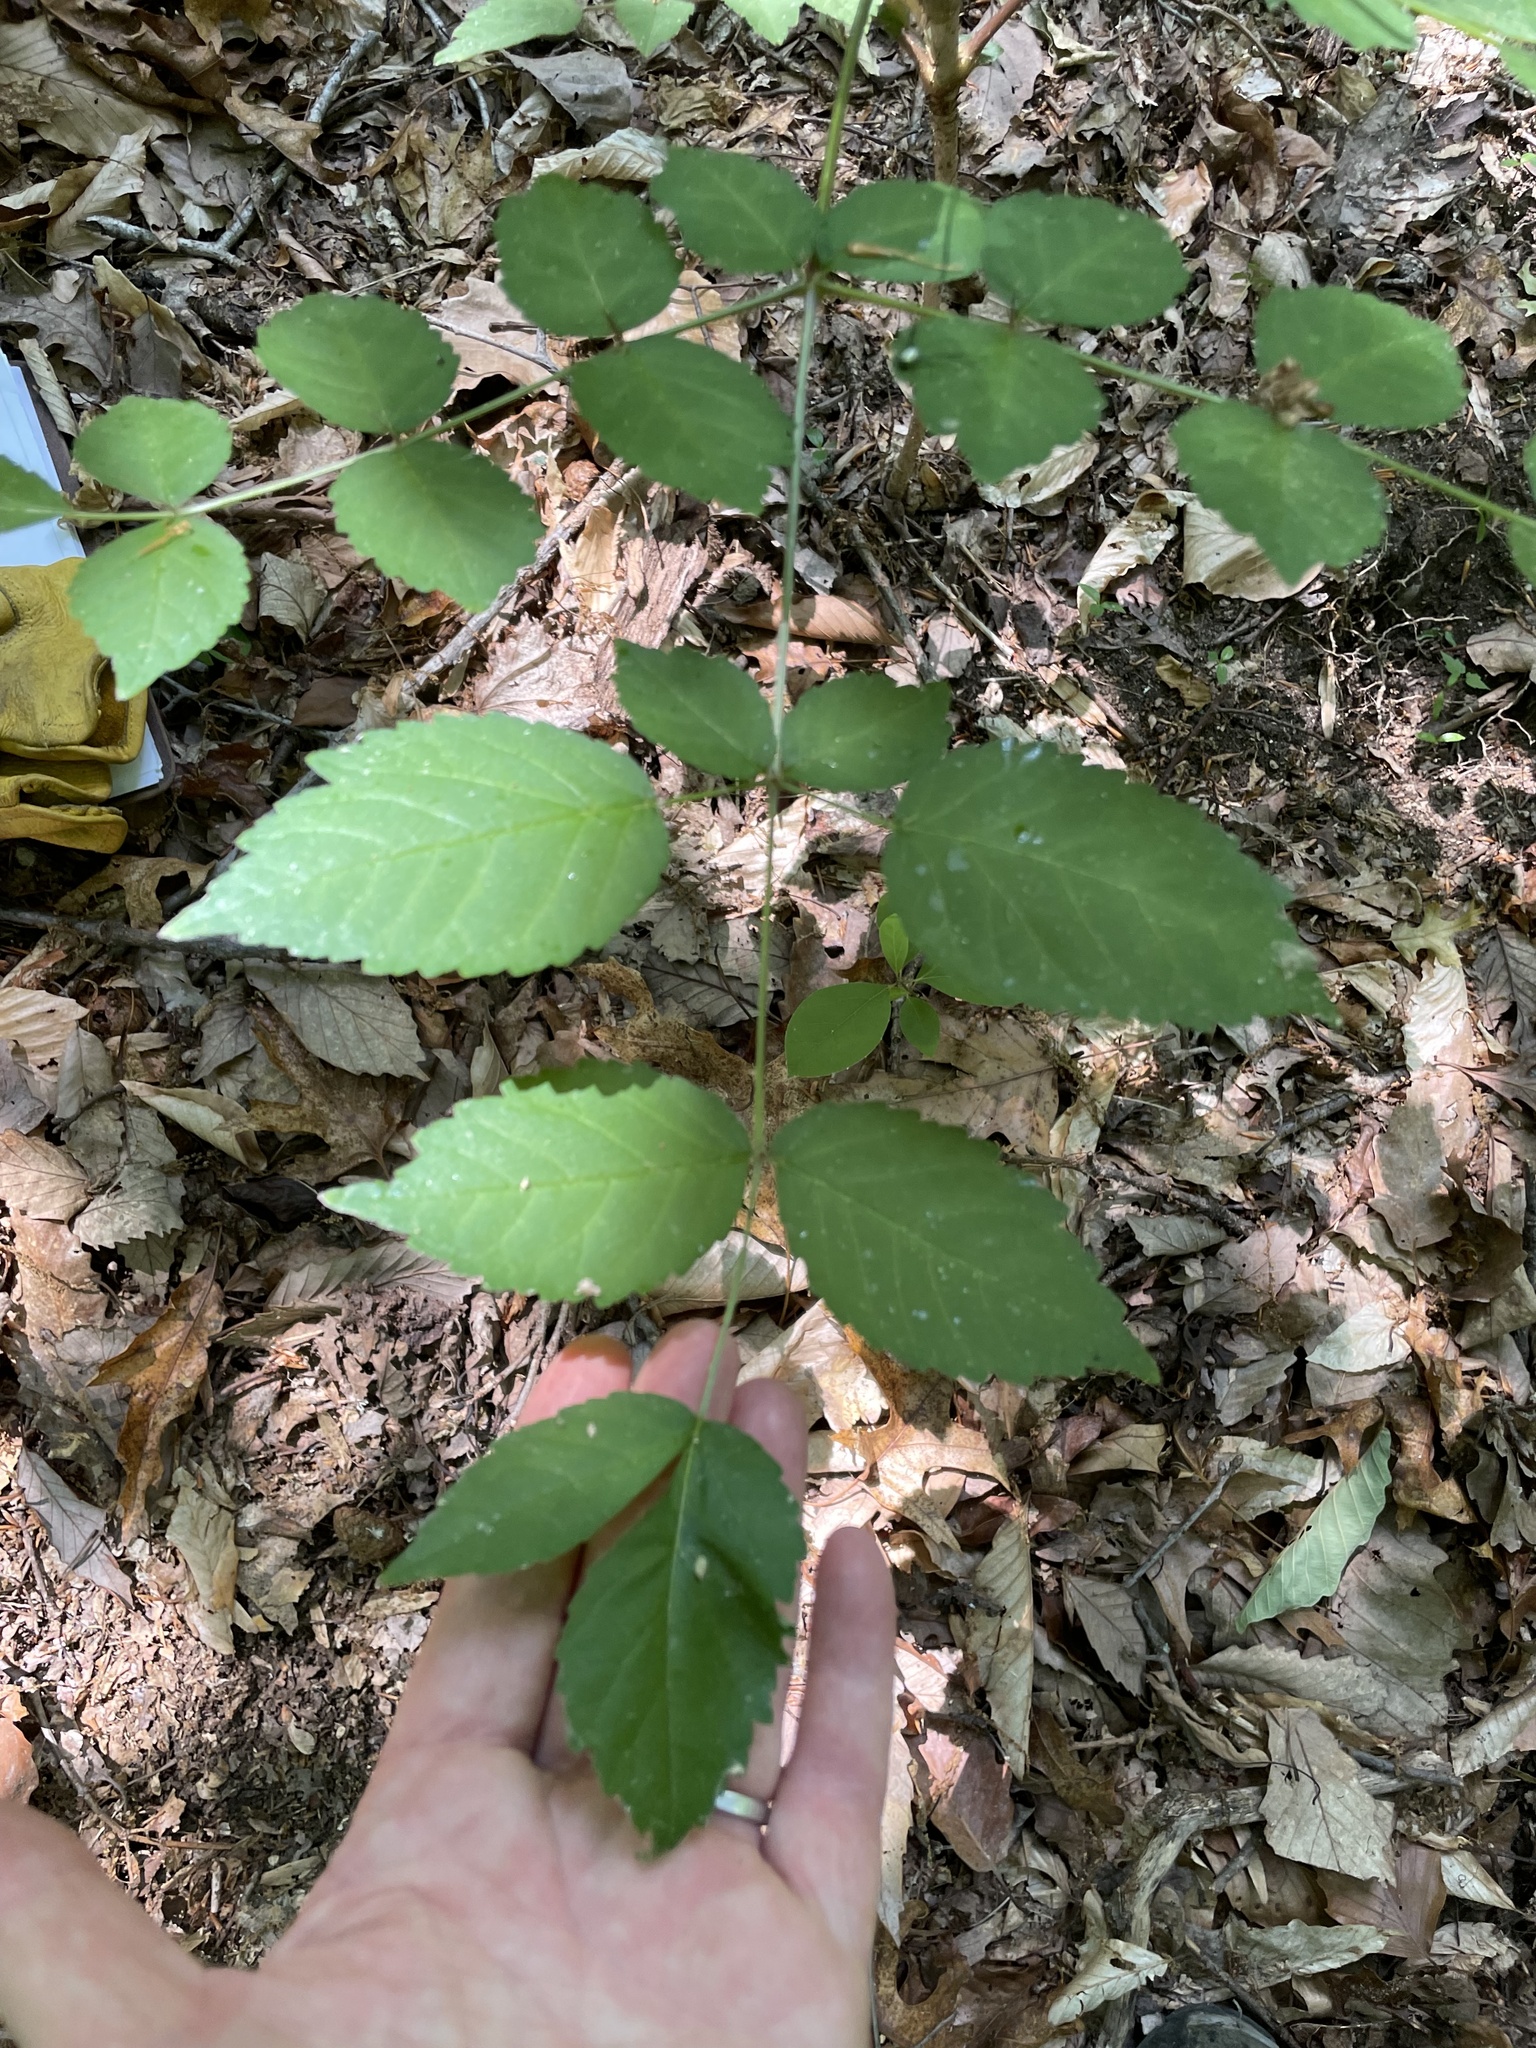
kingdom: Plantae
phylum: Tracheophyta
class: Magnoliopsida
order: Apiales
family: Araliaceae
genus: Aralia
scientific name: Aralia elata
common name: Japanese angelica-tree
